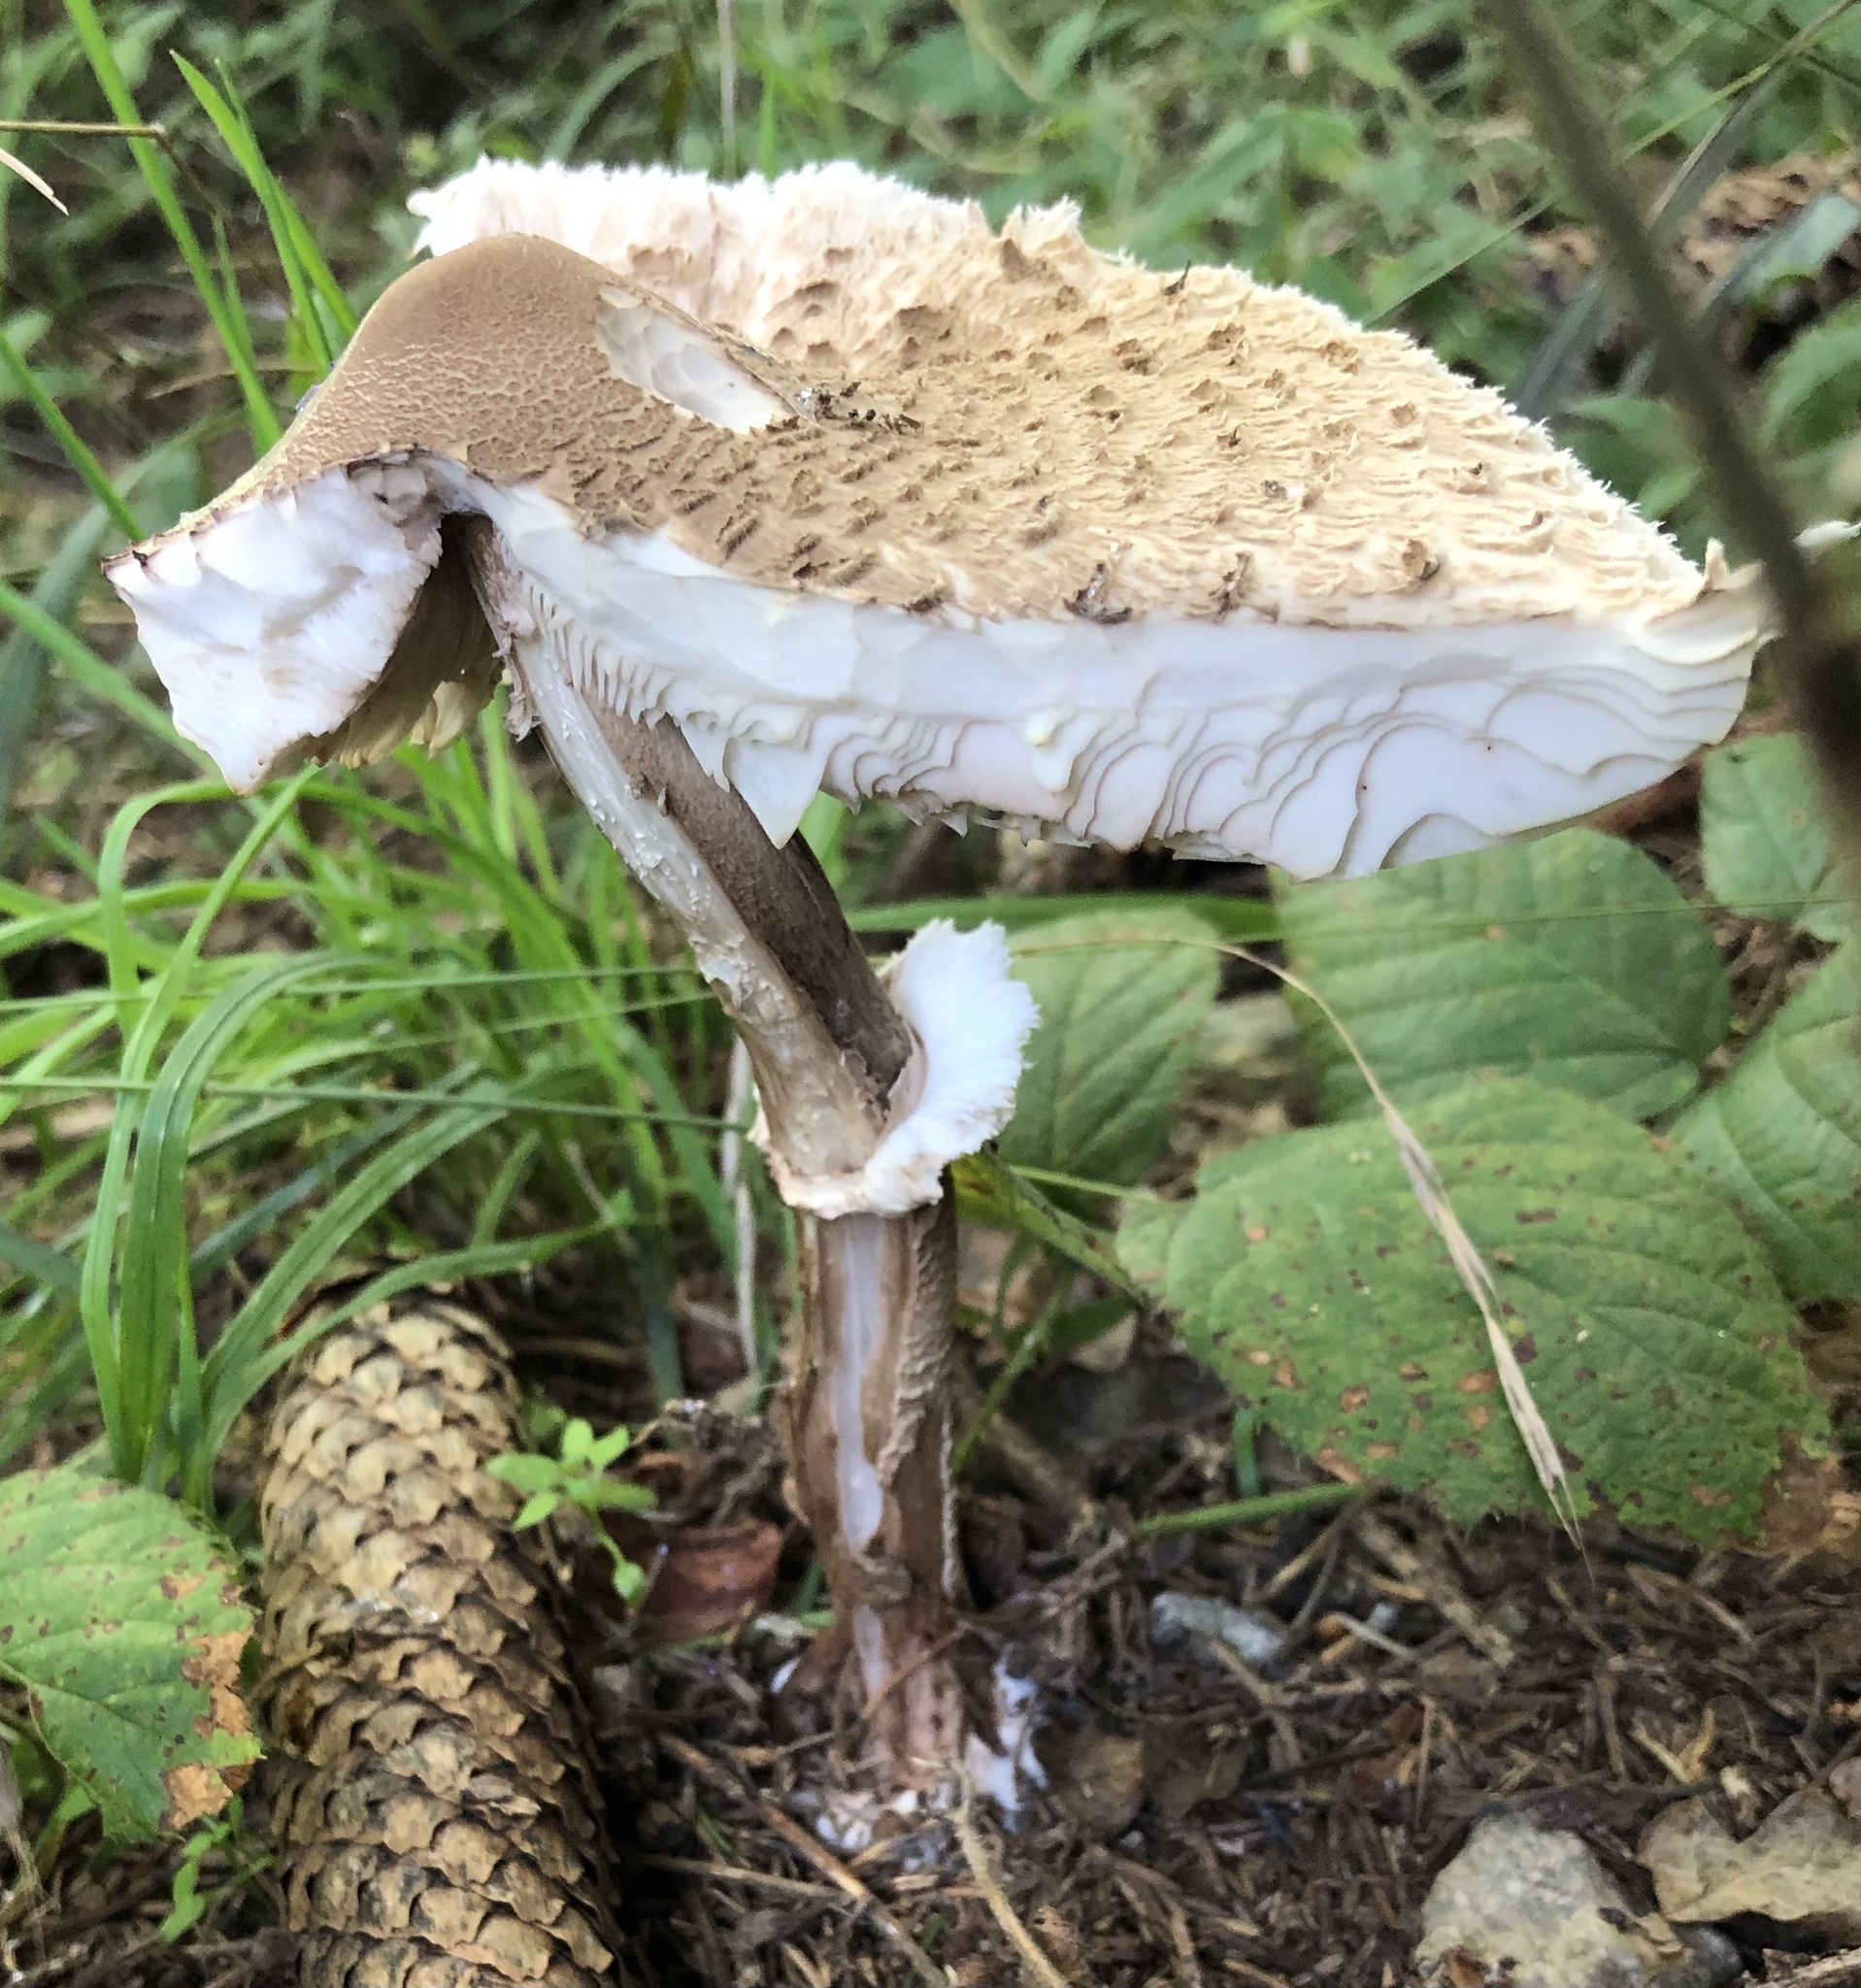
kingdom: Fungi
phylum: Basidiomycota
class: Agaricomycetes
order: Agaricales
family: Agaricaceae
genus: Macrolepiota
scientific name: Macrolepiota procera
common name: Parasol
